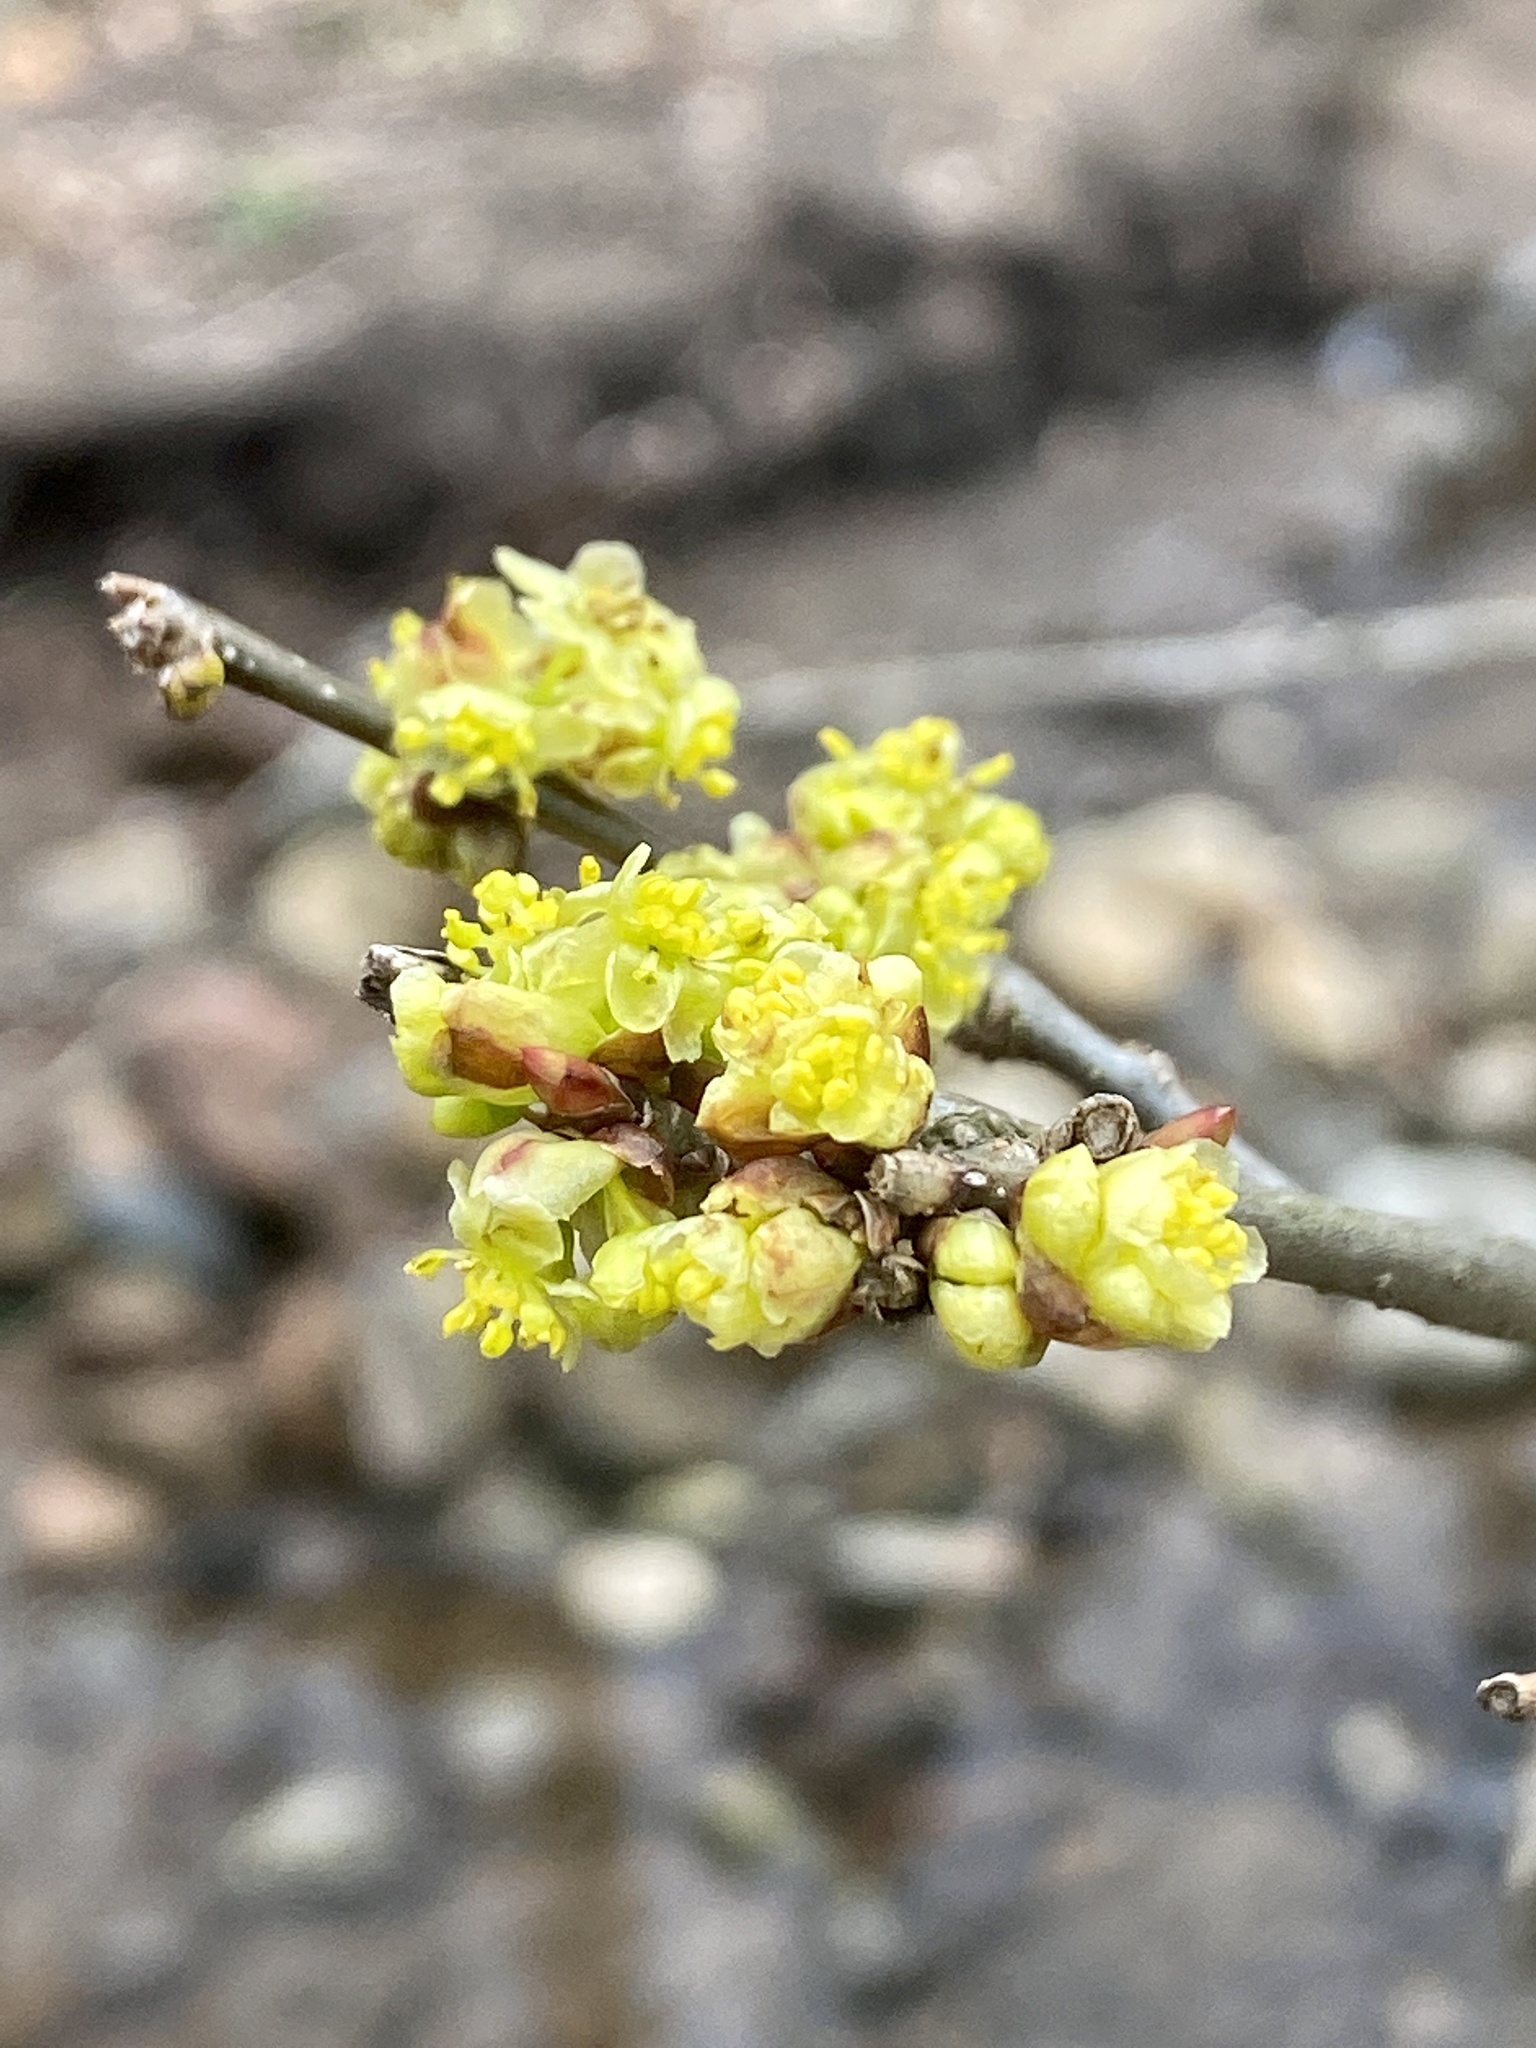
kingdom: Plantae
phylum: Tracheophyta
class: Magnoliopsida
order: Laurales
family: Lauraceae
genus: Lindera
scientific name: Lindera benzoin
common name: Spicebush
